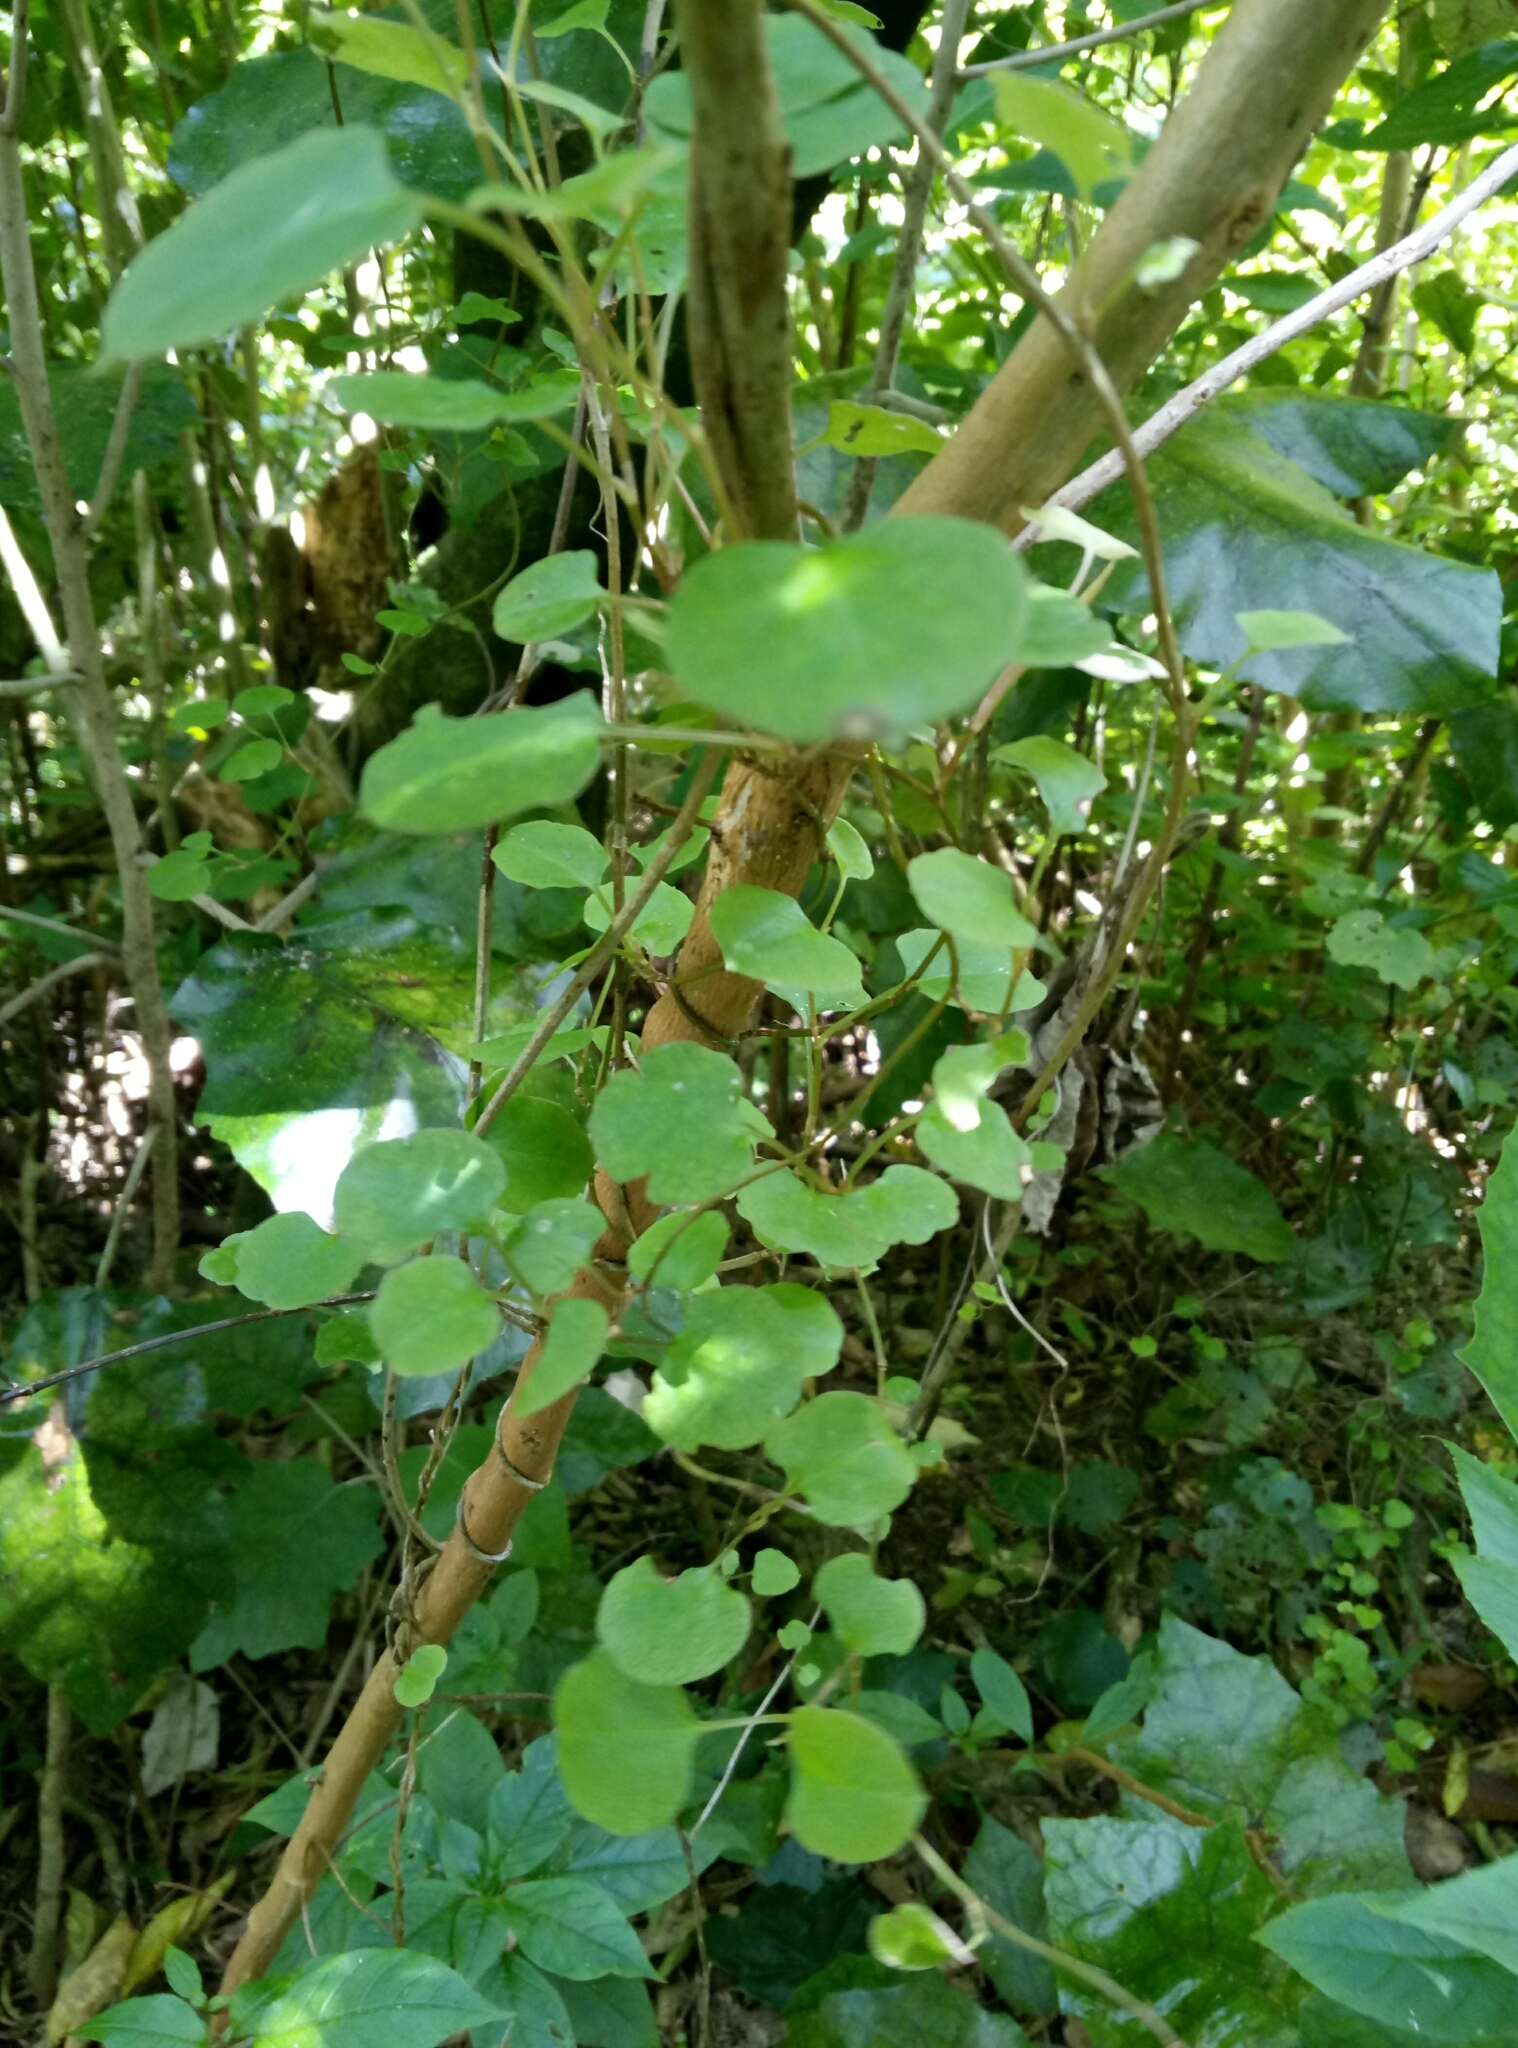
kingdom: Plantae
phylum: Tracheophyta
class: Magnoliopsida
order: Caryophyllales
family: Polygonaceae
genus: Muehlenbeckia
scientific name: Muehlenbeckia australis
